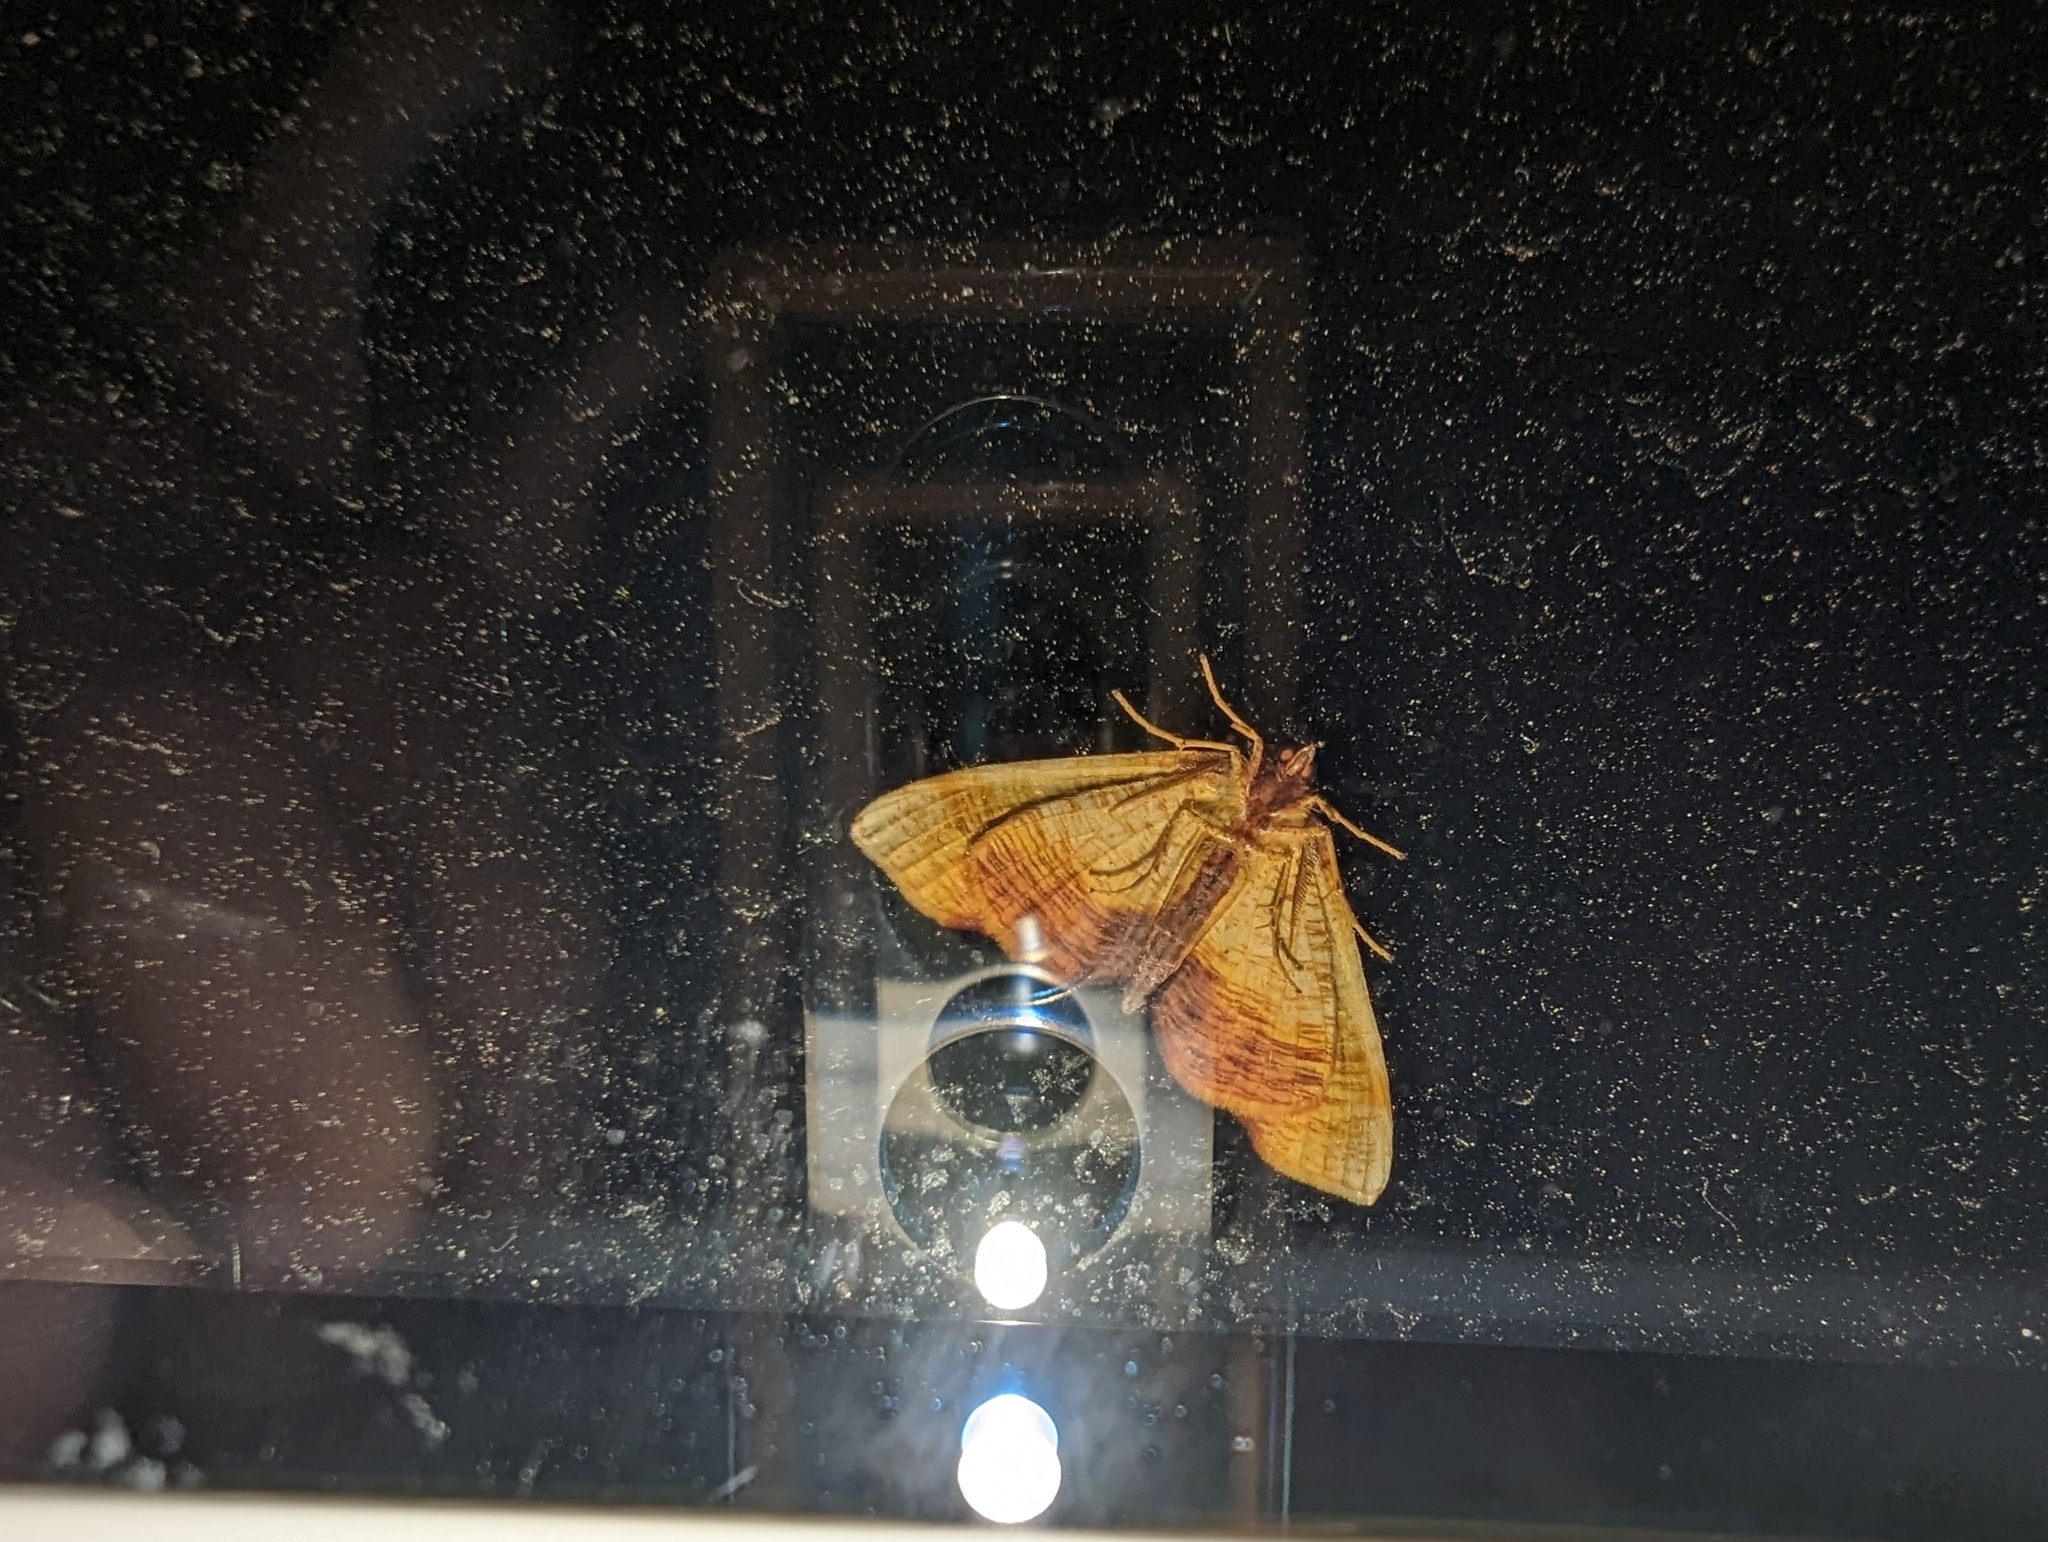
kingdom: Animalia
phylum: Arthropoda
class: Insecta
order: Lepidoptera
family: Geometridae
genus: Plagodis
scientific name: Plagodis dolabraria
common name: Scorched wing
